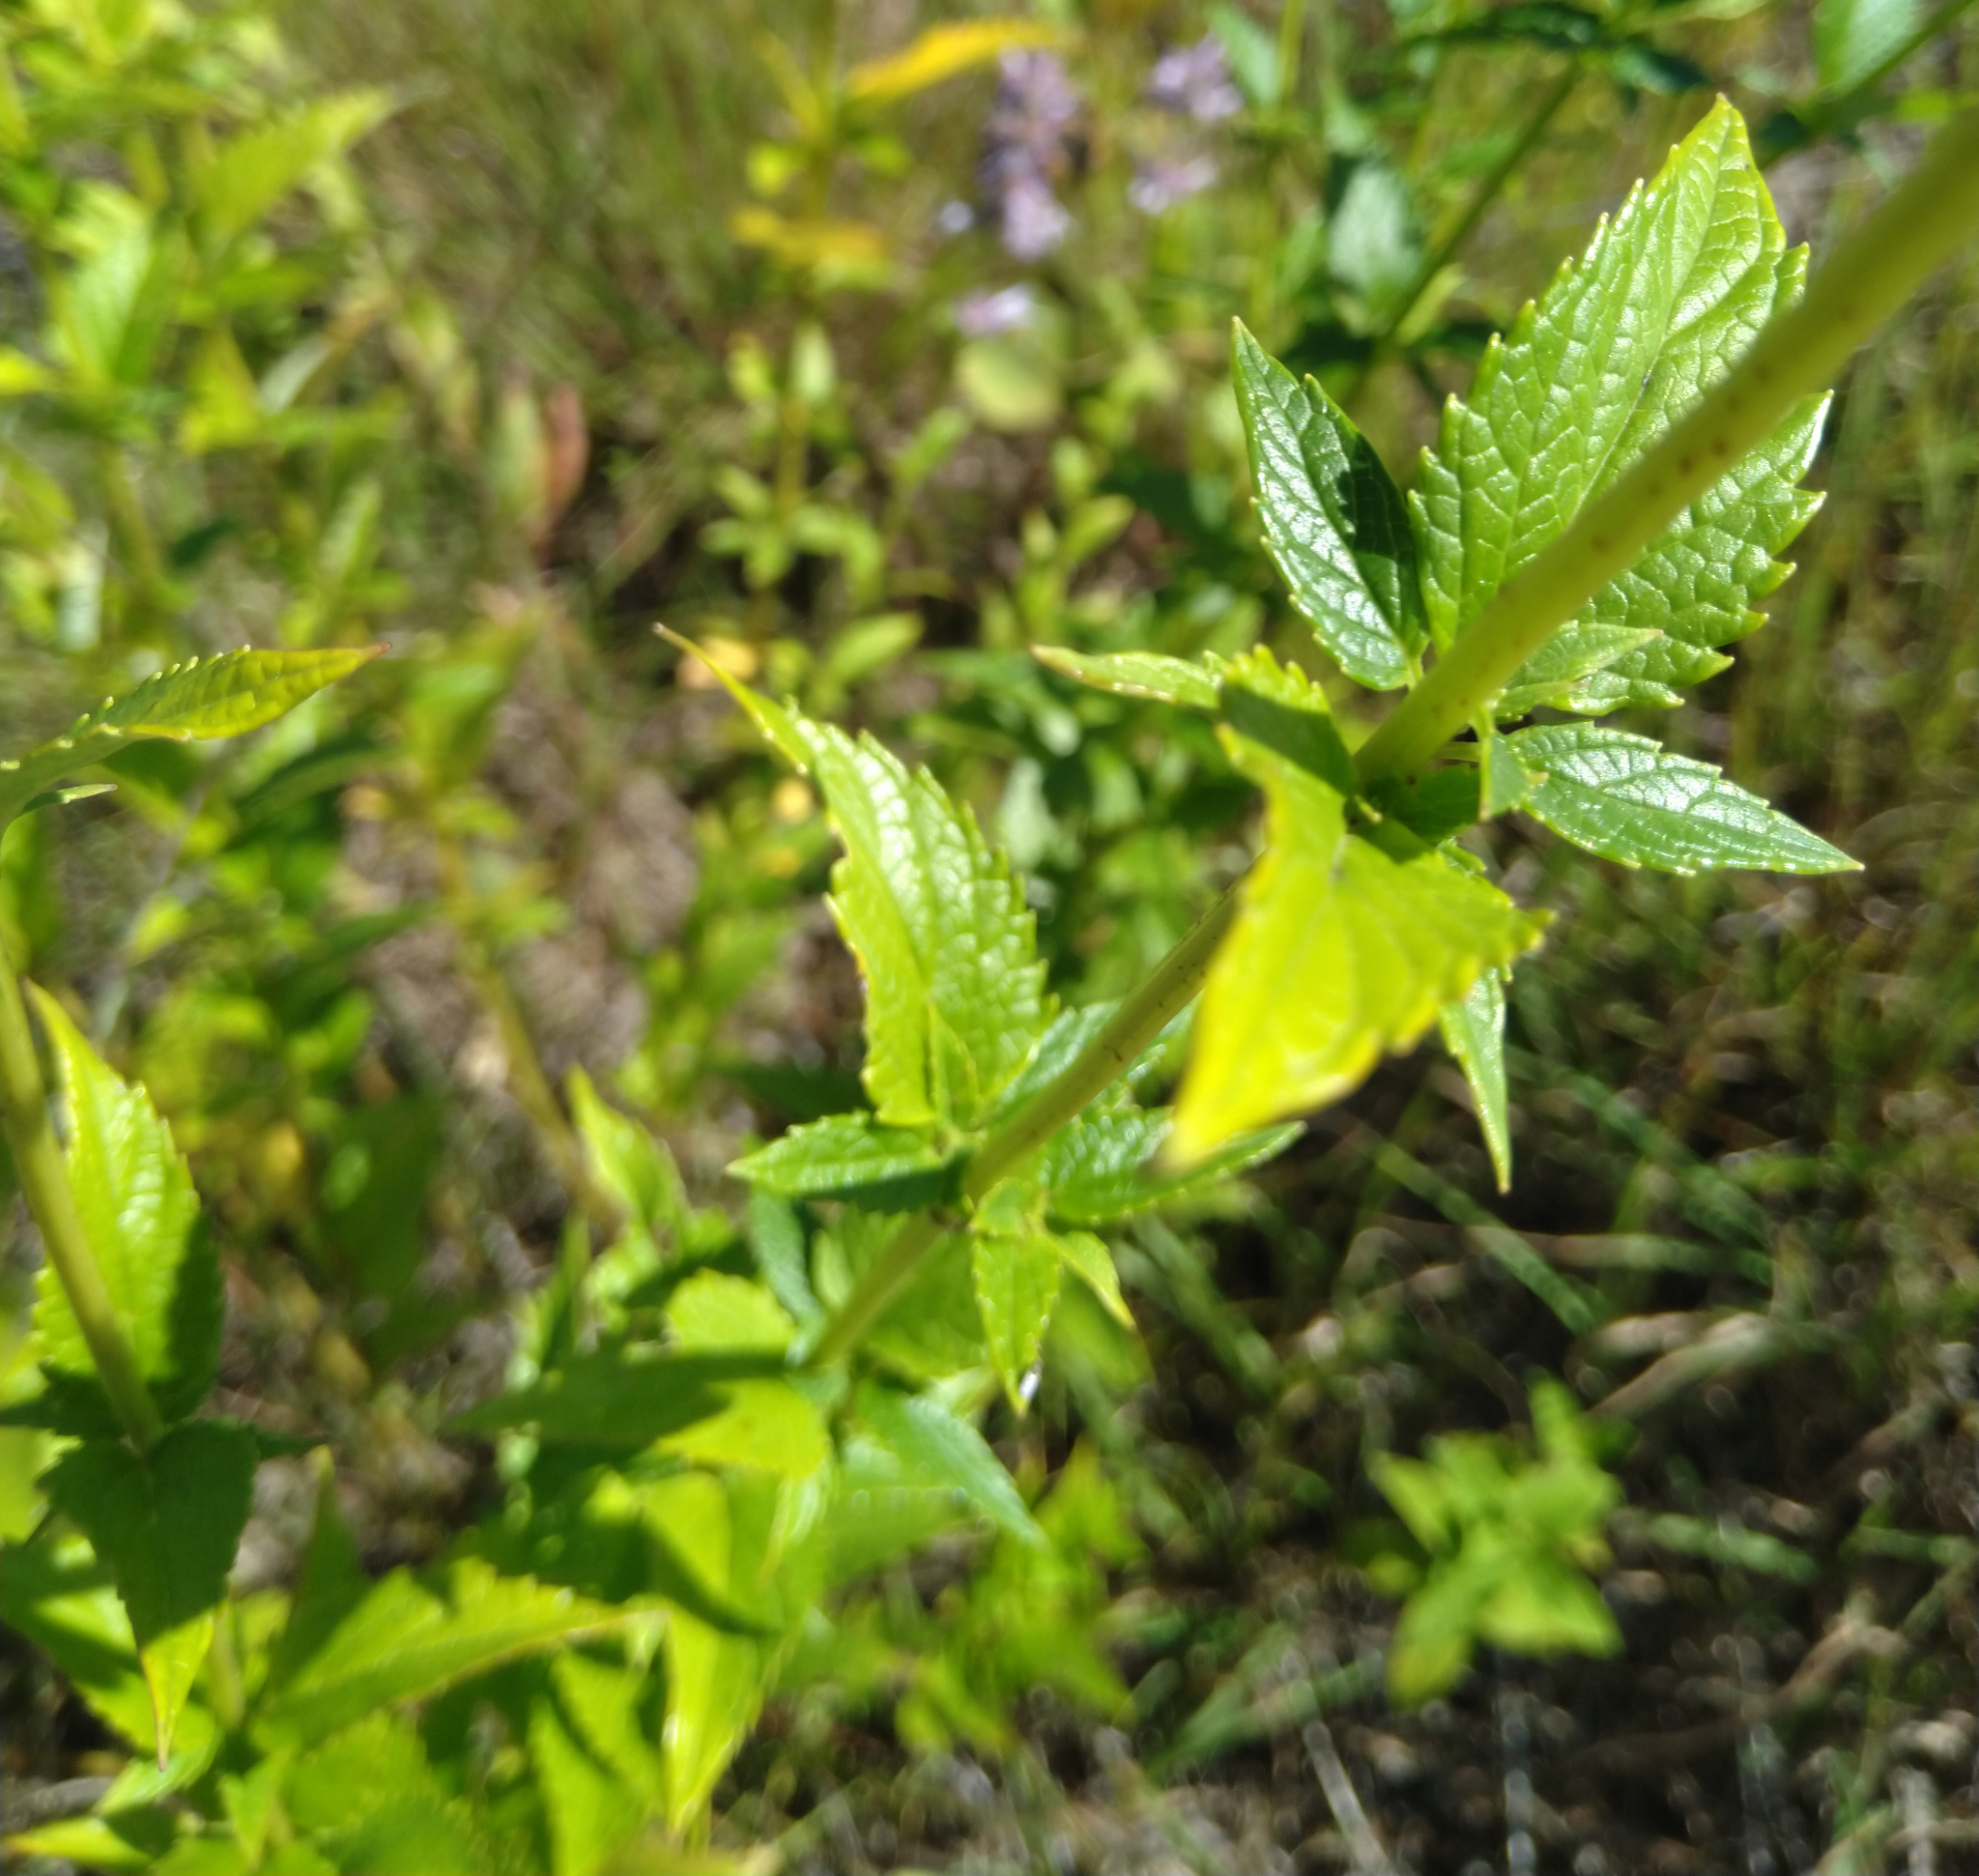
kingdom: Plantae
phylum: Tracheophyta
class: Magnoliopsida
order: Lamiales
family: Lamiaceae
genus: Agastache
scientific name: Agastache foeniculum
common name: Anise hyssop
